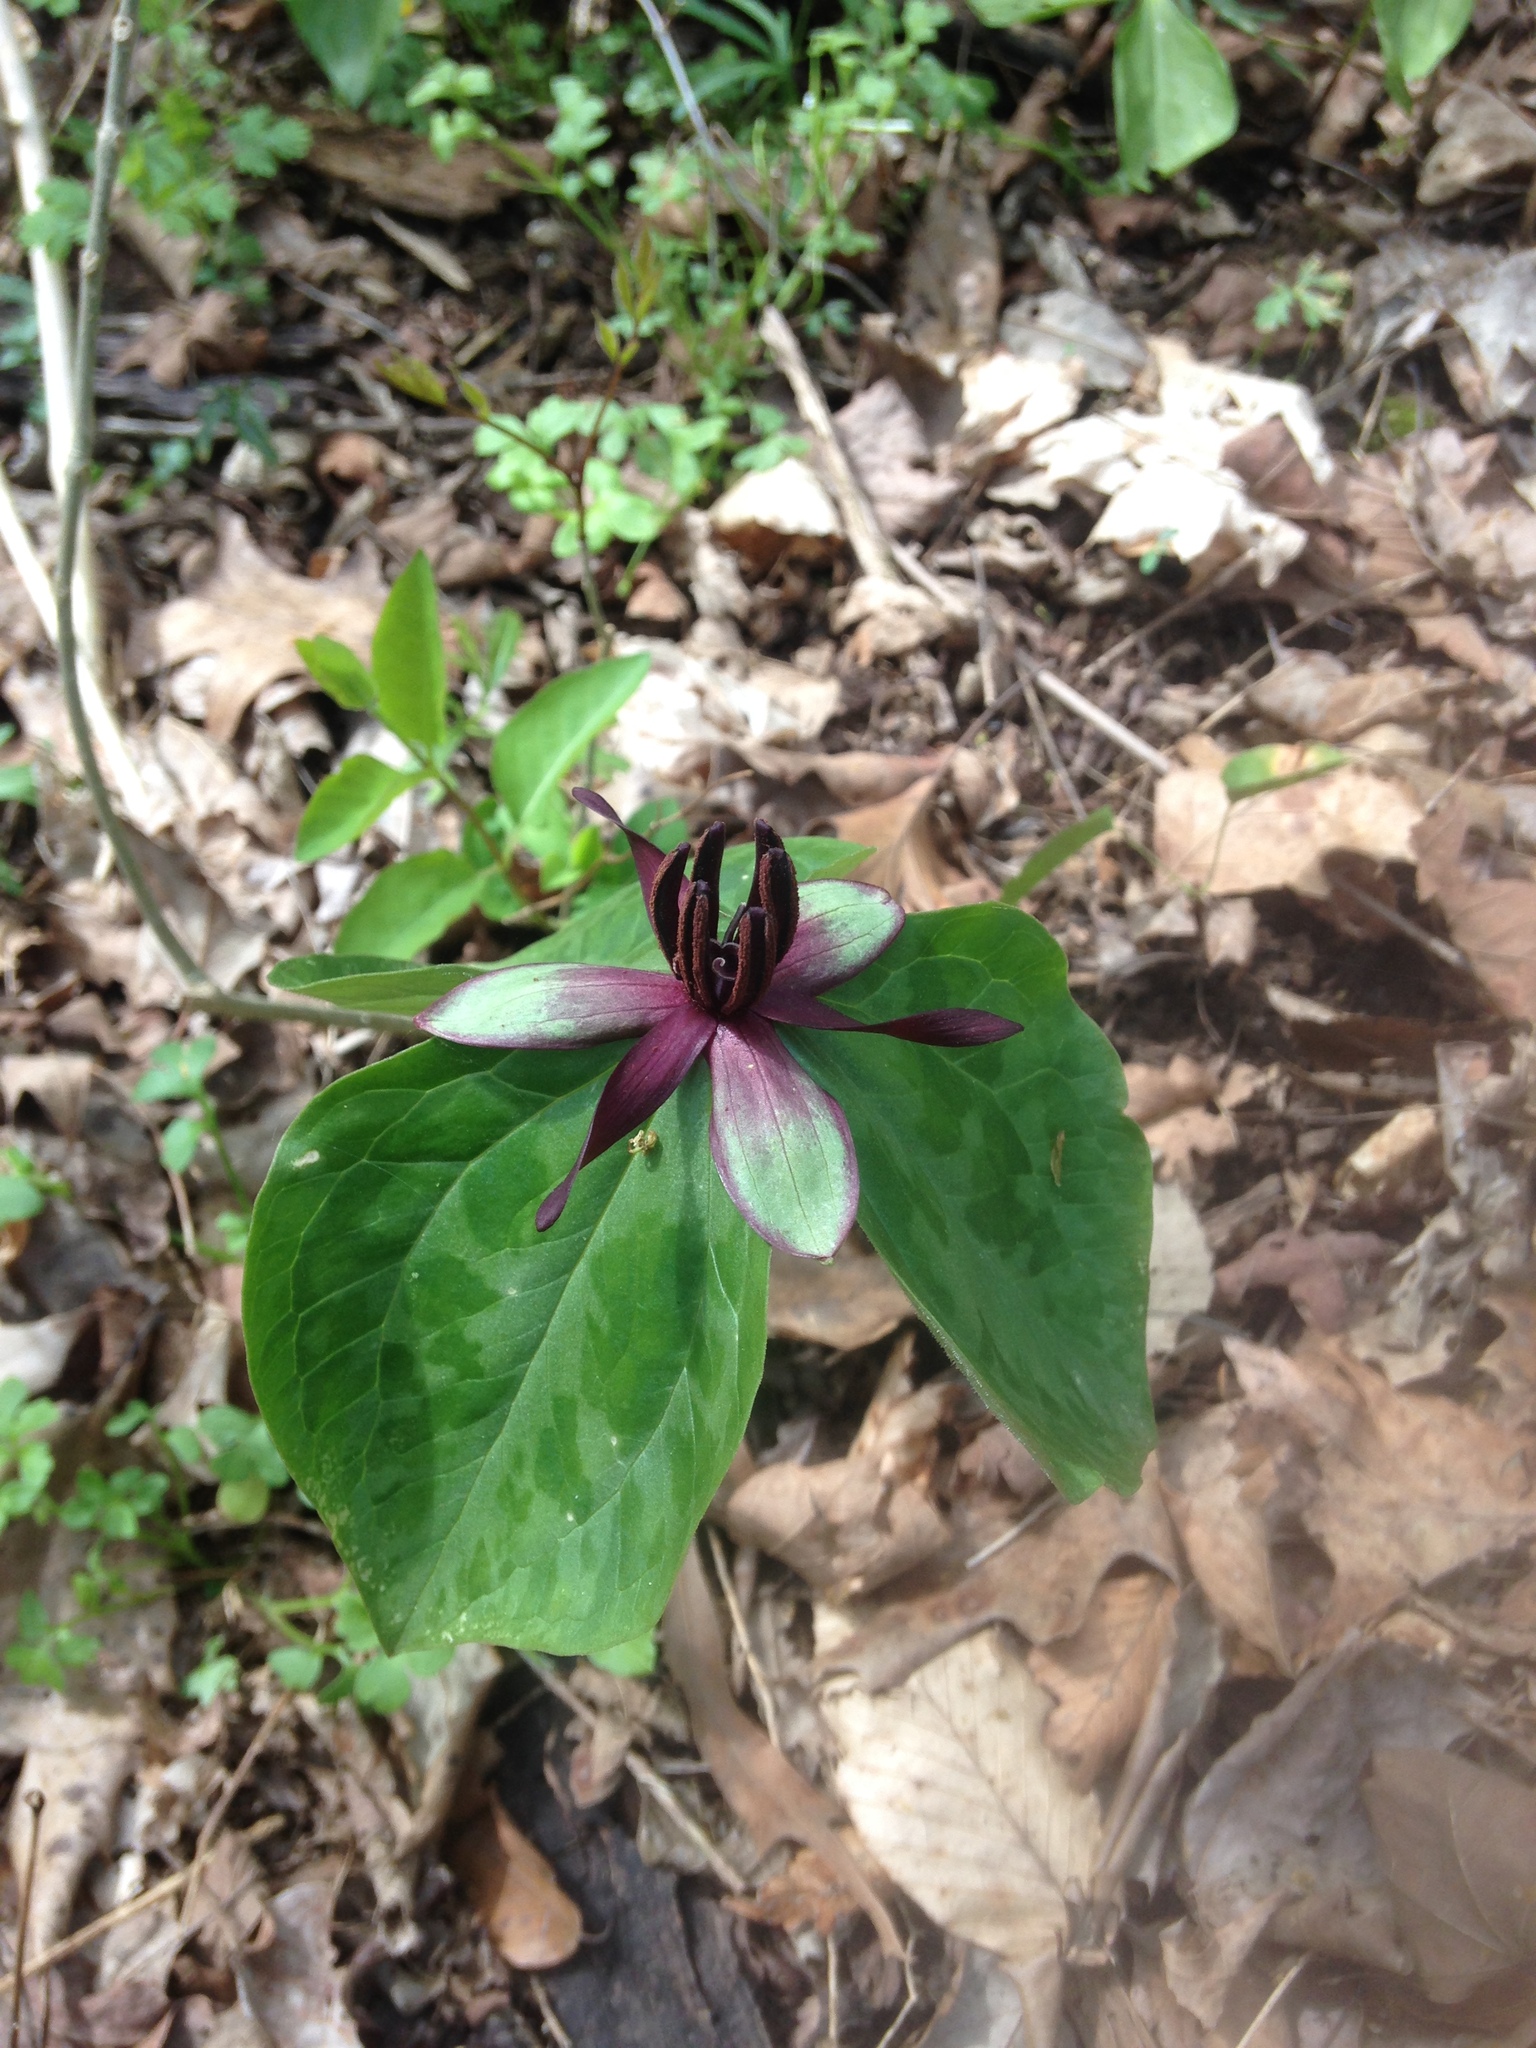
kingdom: Plantae
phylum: Tracheophyta
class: Liliopsida
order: Liliales
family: Melanthiaceae
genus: Trillium
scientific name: Trillium stamineum
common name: Blue ridge wakerobin
